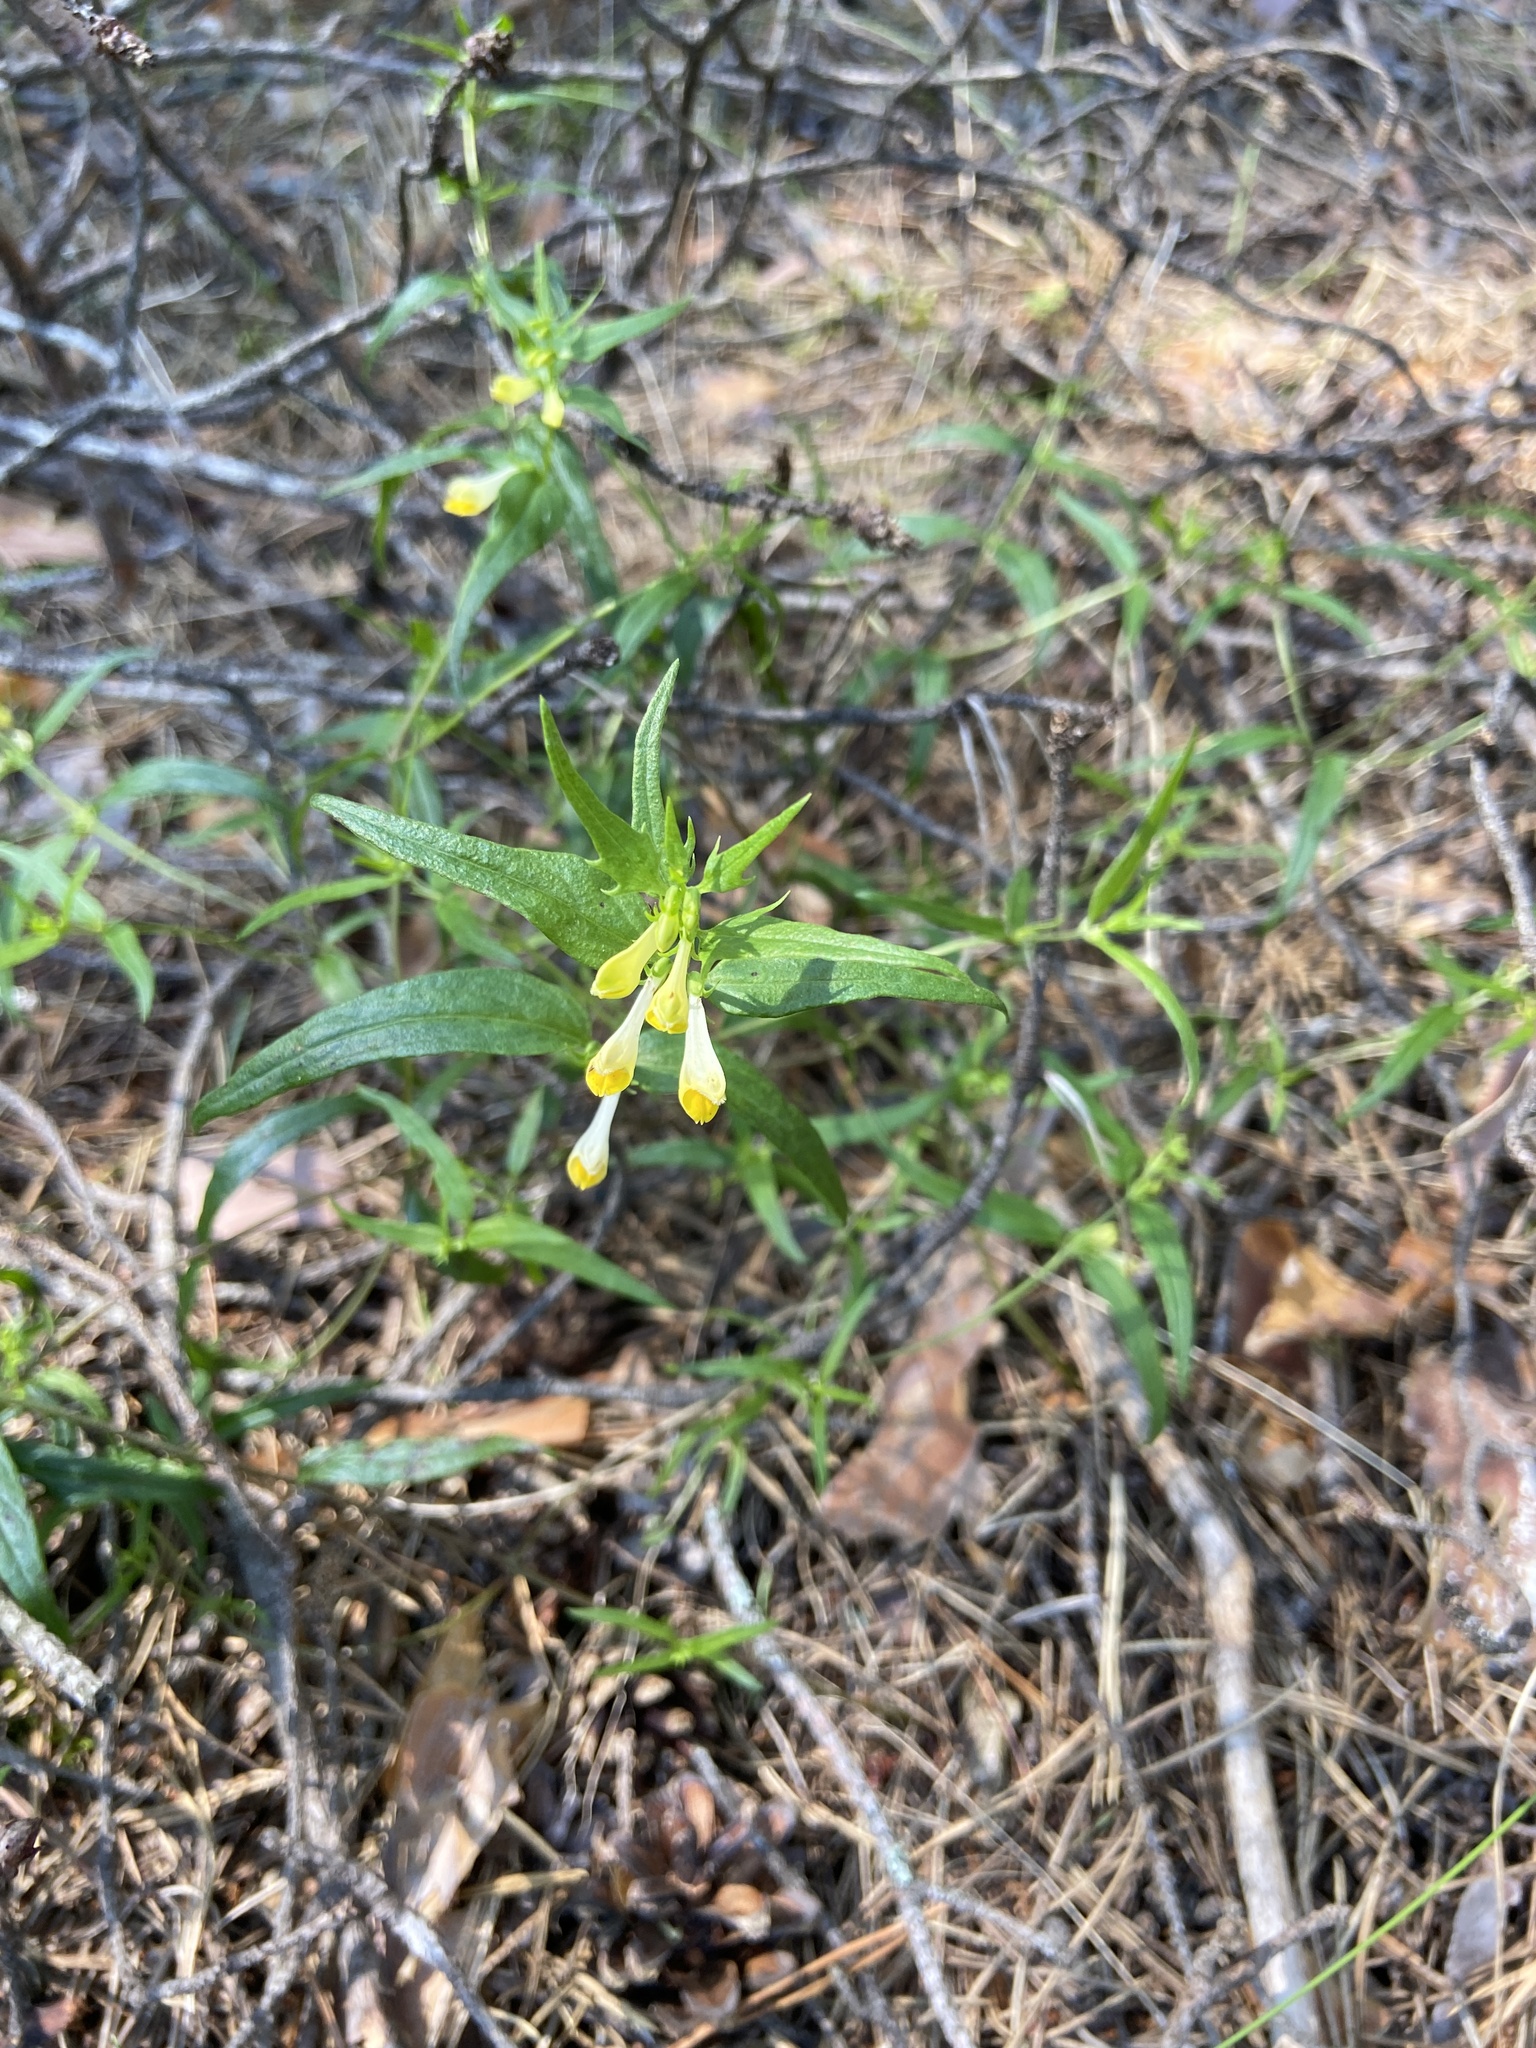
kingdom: Plantae
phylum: Tracheophyta
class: Magnoliopsida
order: Lamiales
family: Orobanchaceae
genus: Melampyrum
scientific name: Melampyrum pratense
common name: Common cow-wheat
